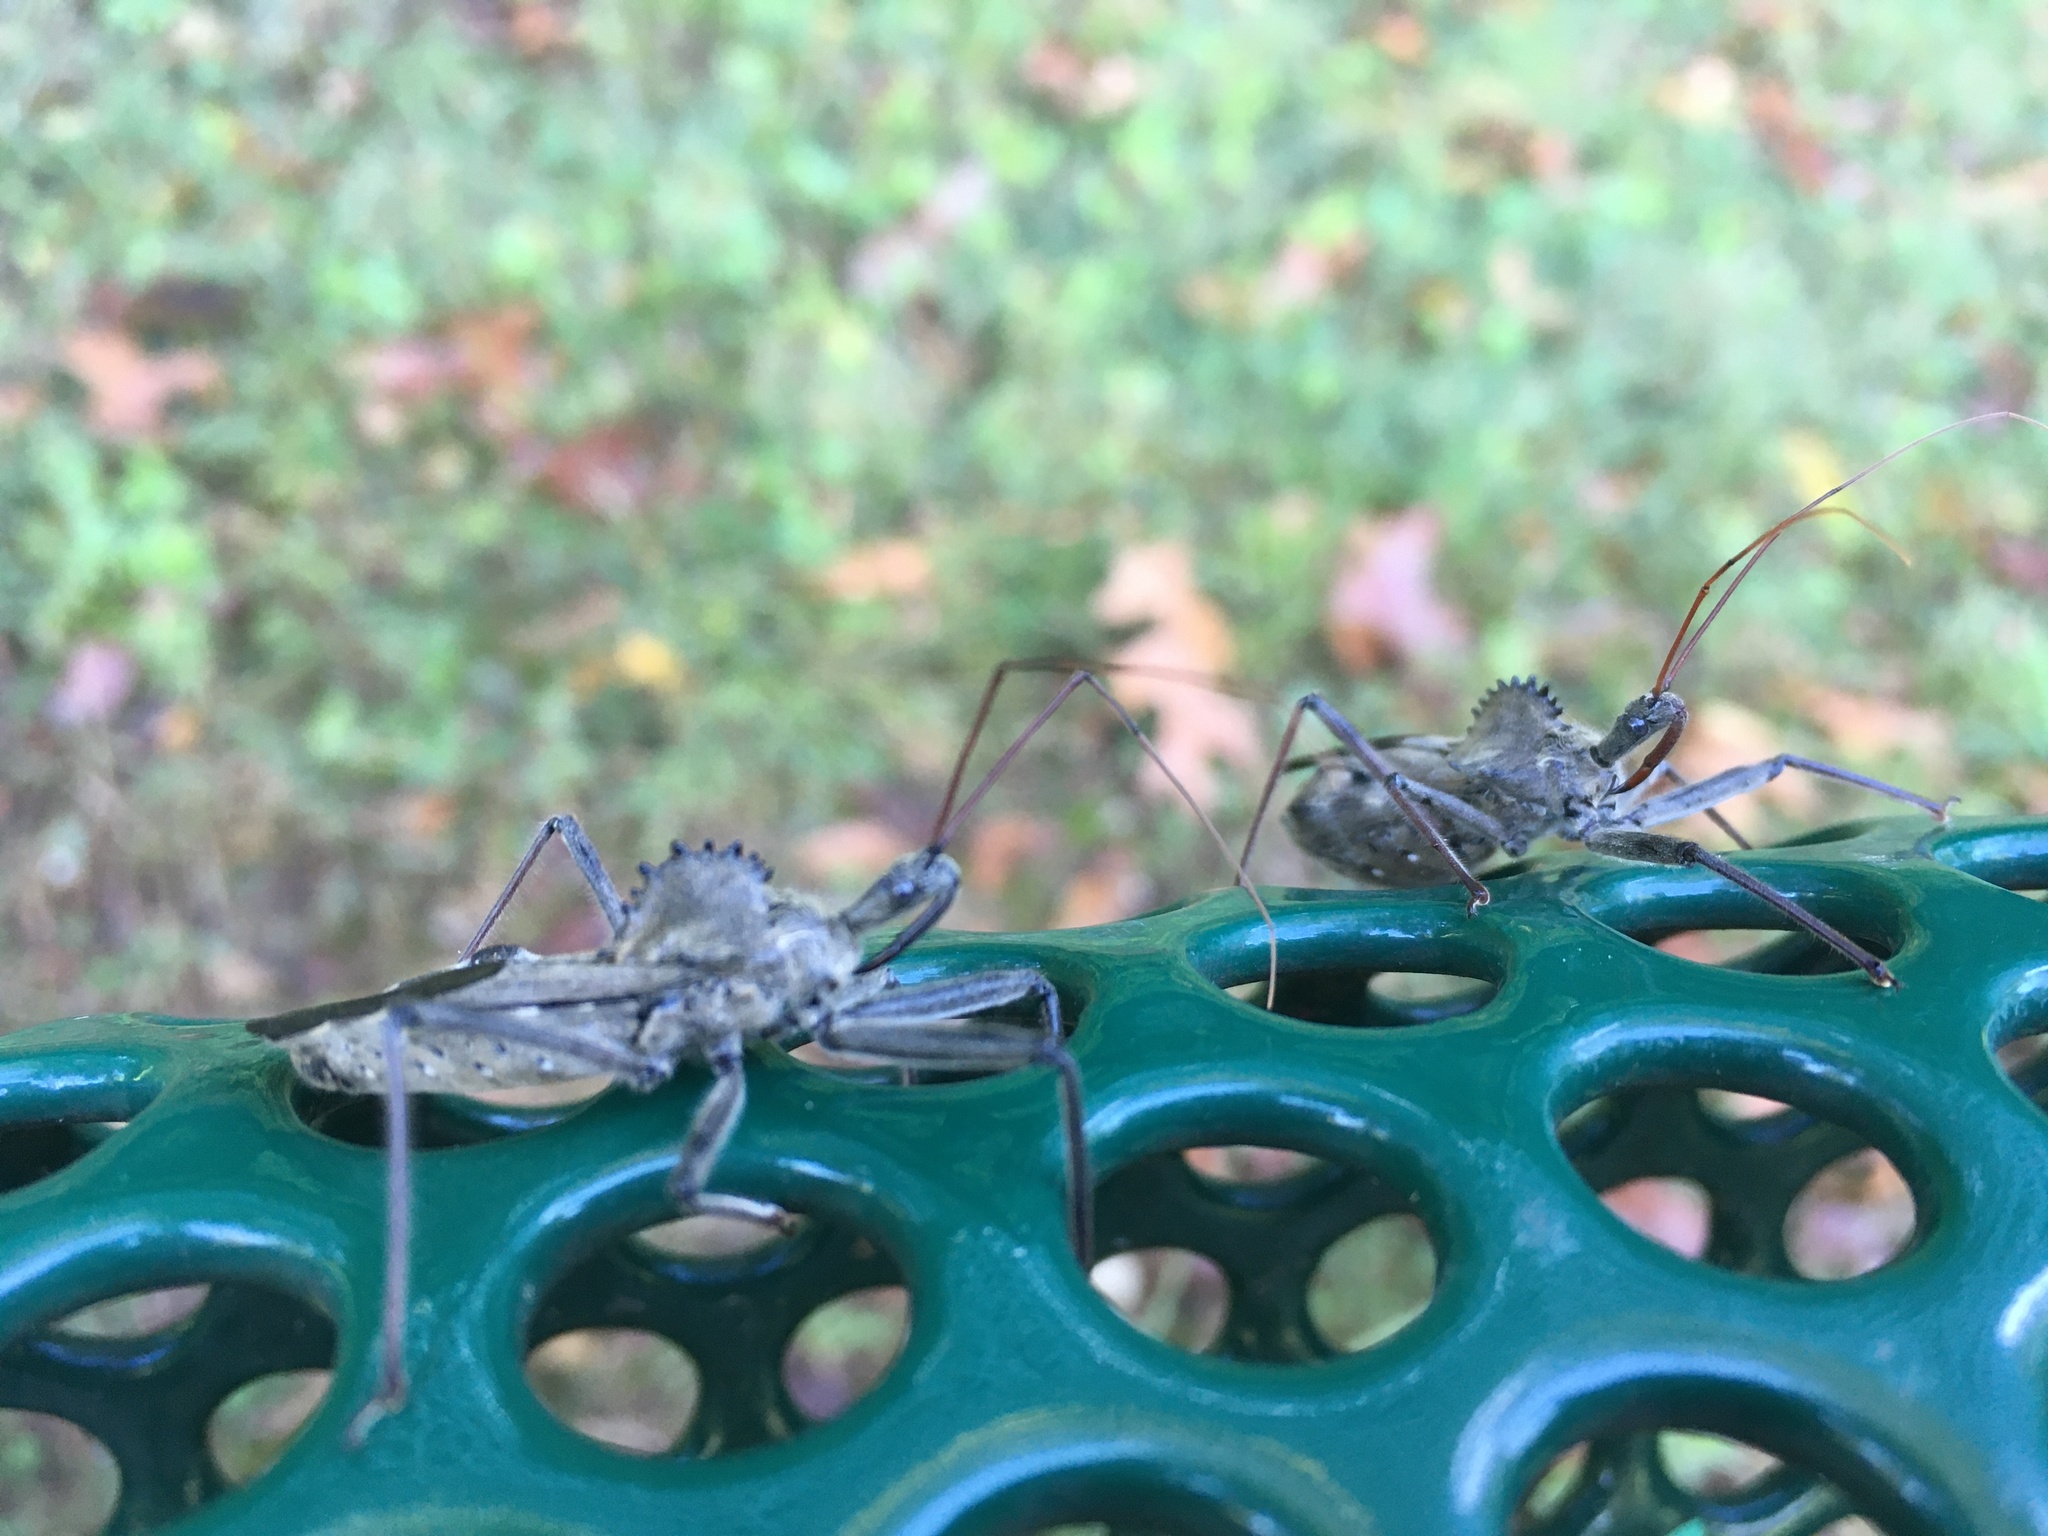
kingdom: Animalia
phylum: Arthropoda
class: Insecta
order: Hemiptera
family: Reduviidae
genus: Arilus
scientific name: Arilus cristatus
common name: North american wheel bug
